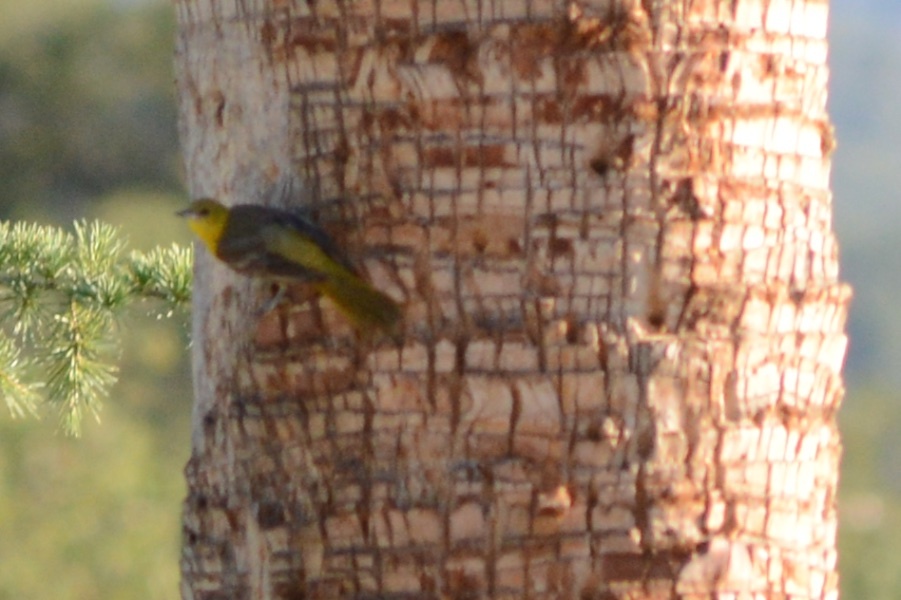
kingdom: Animalia
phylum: Chordata
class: Aves
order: Passeriformes
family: Icteridae
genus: Icterus
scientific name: Icterus cucullatus
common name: Hooded oriole
